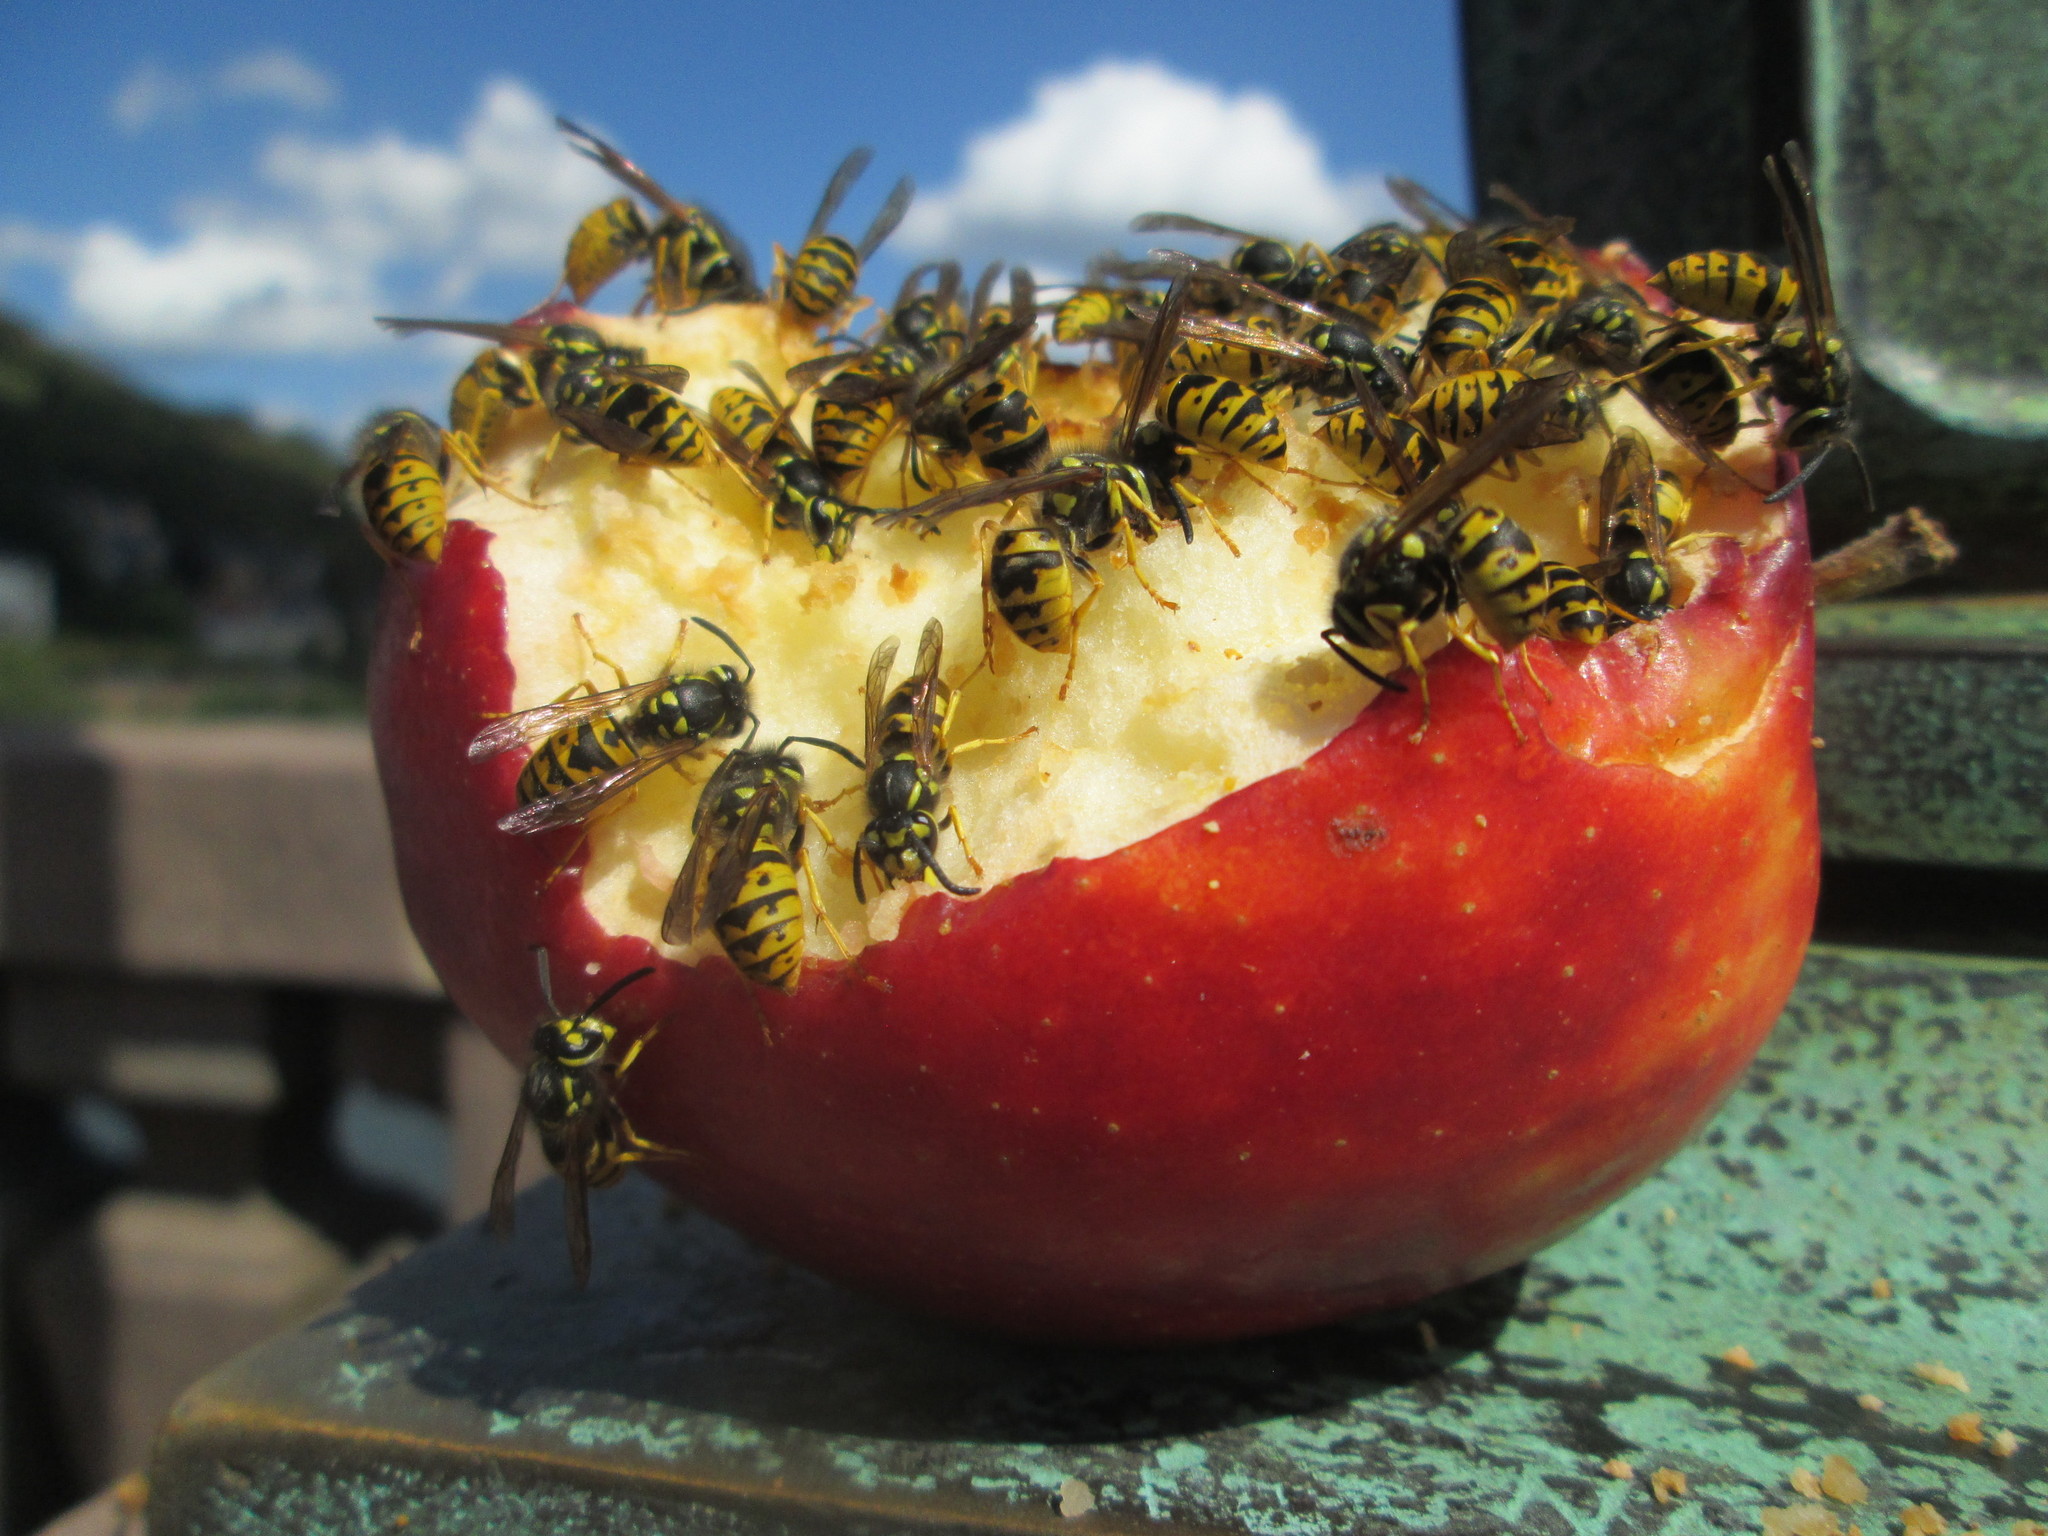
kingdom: Animalia
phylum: Arthropoda
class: Insecta
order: Hymenoptera
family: Vespidae
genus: Vespula
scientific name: Vespula germanica
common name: German wasp
